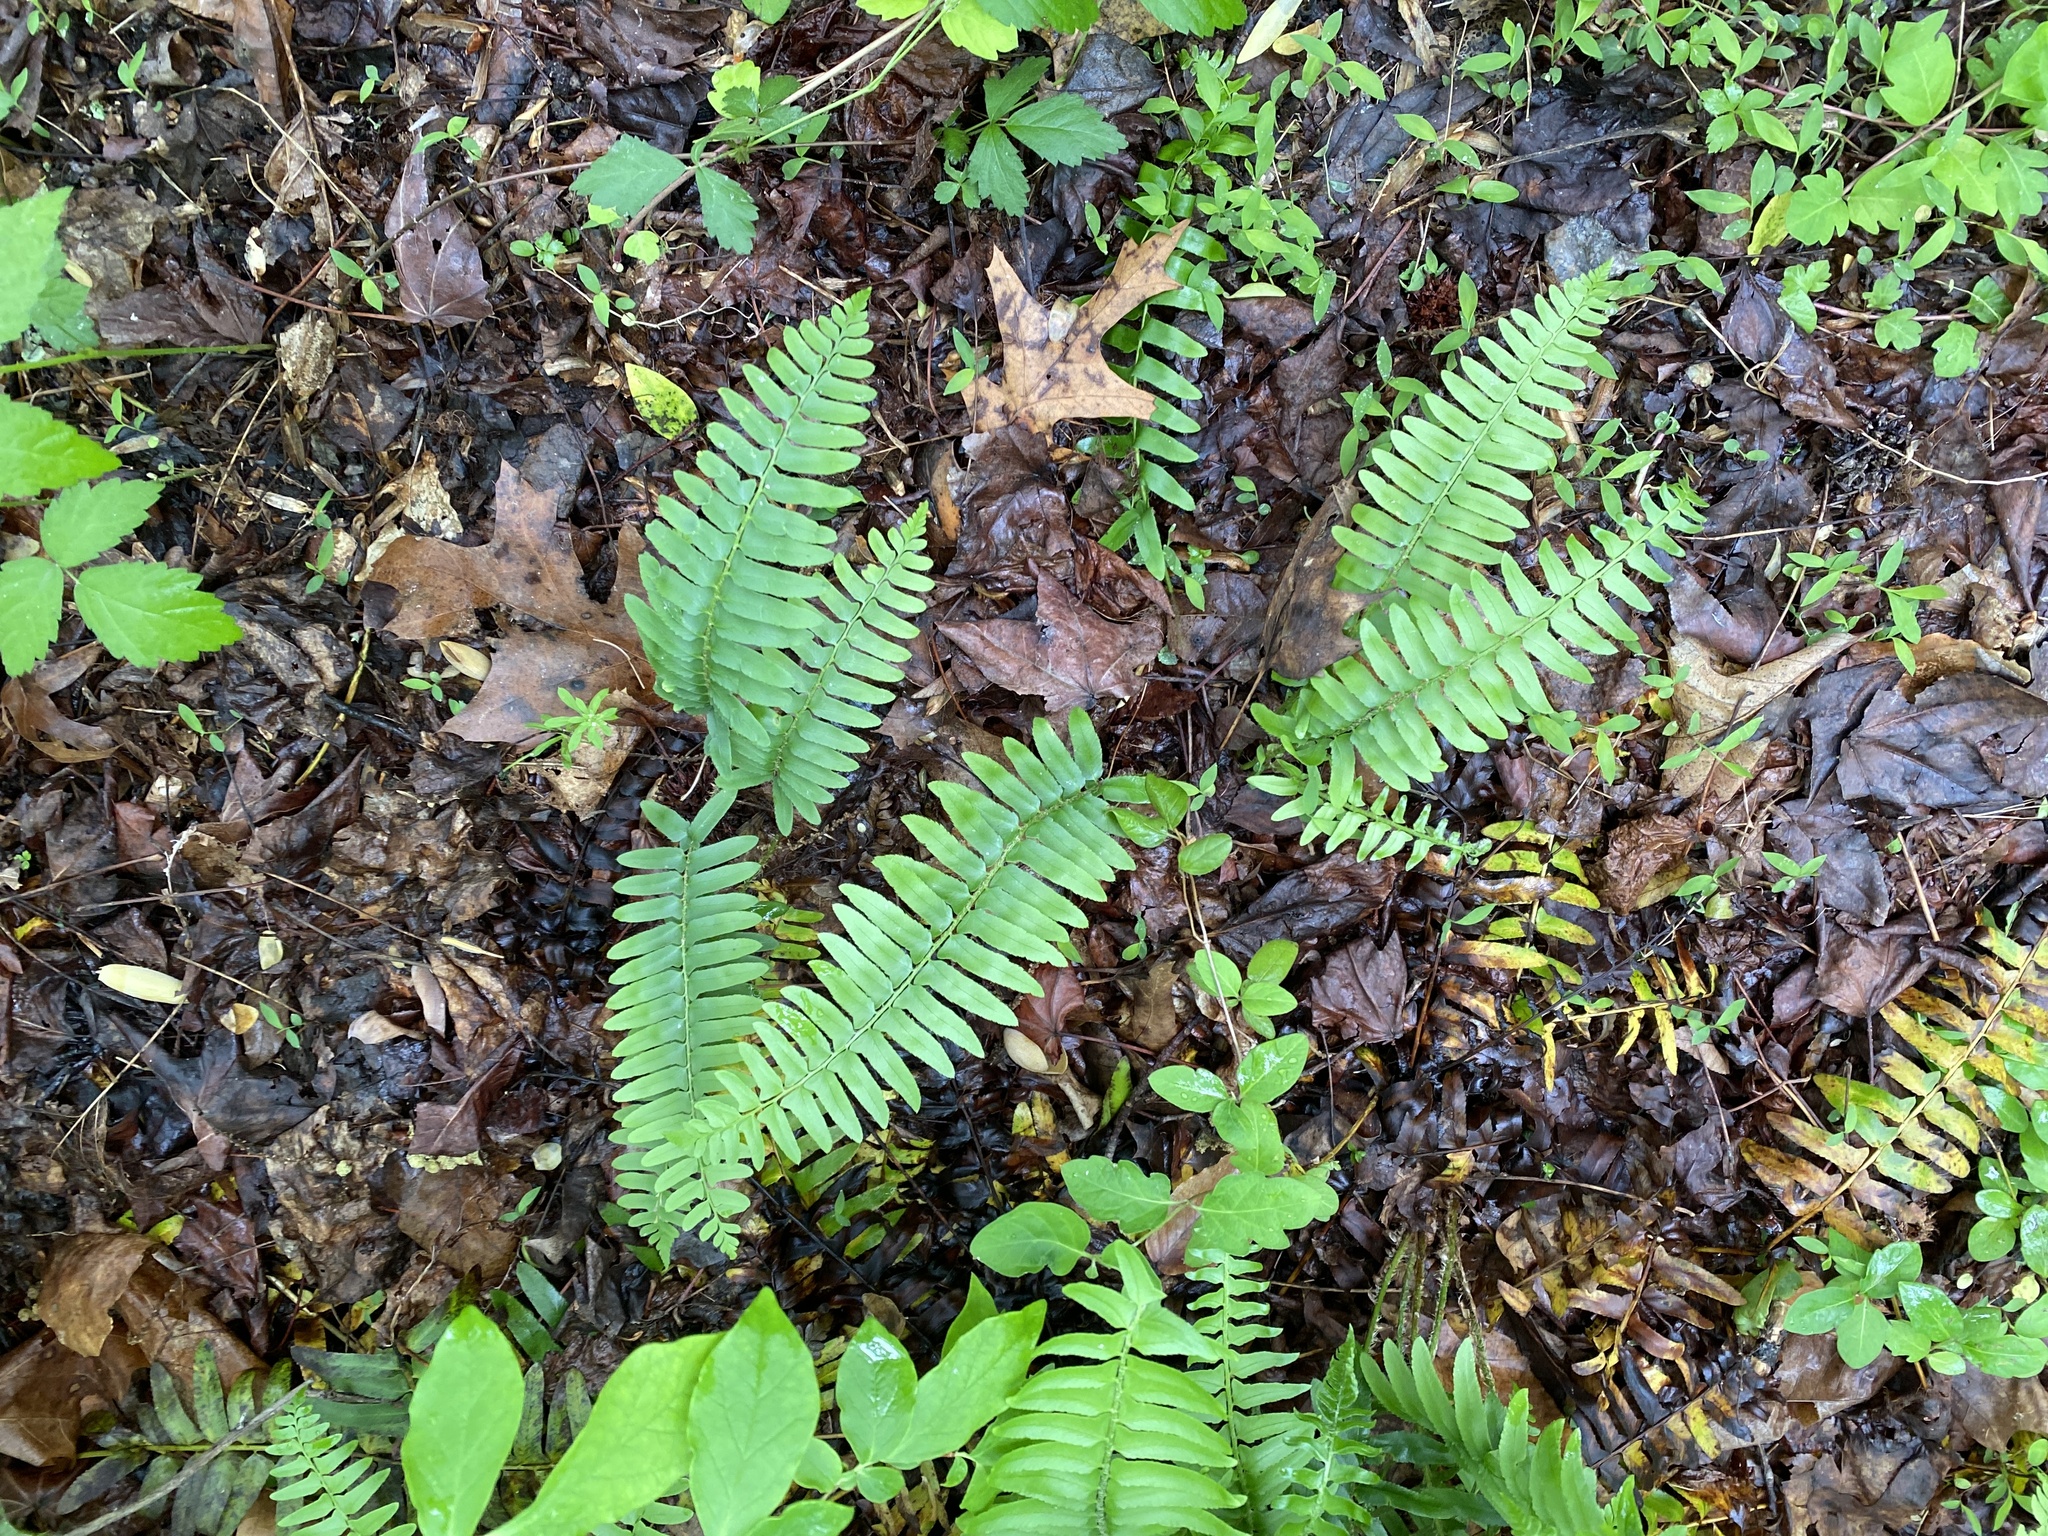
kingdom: Plantae
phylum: Tracheophyta
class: Polypodiopsida
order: Polypodiales
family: Dryopteridaceae
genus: Polystichum
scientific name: Polystichum acrostichoides
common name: Christmas fern
